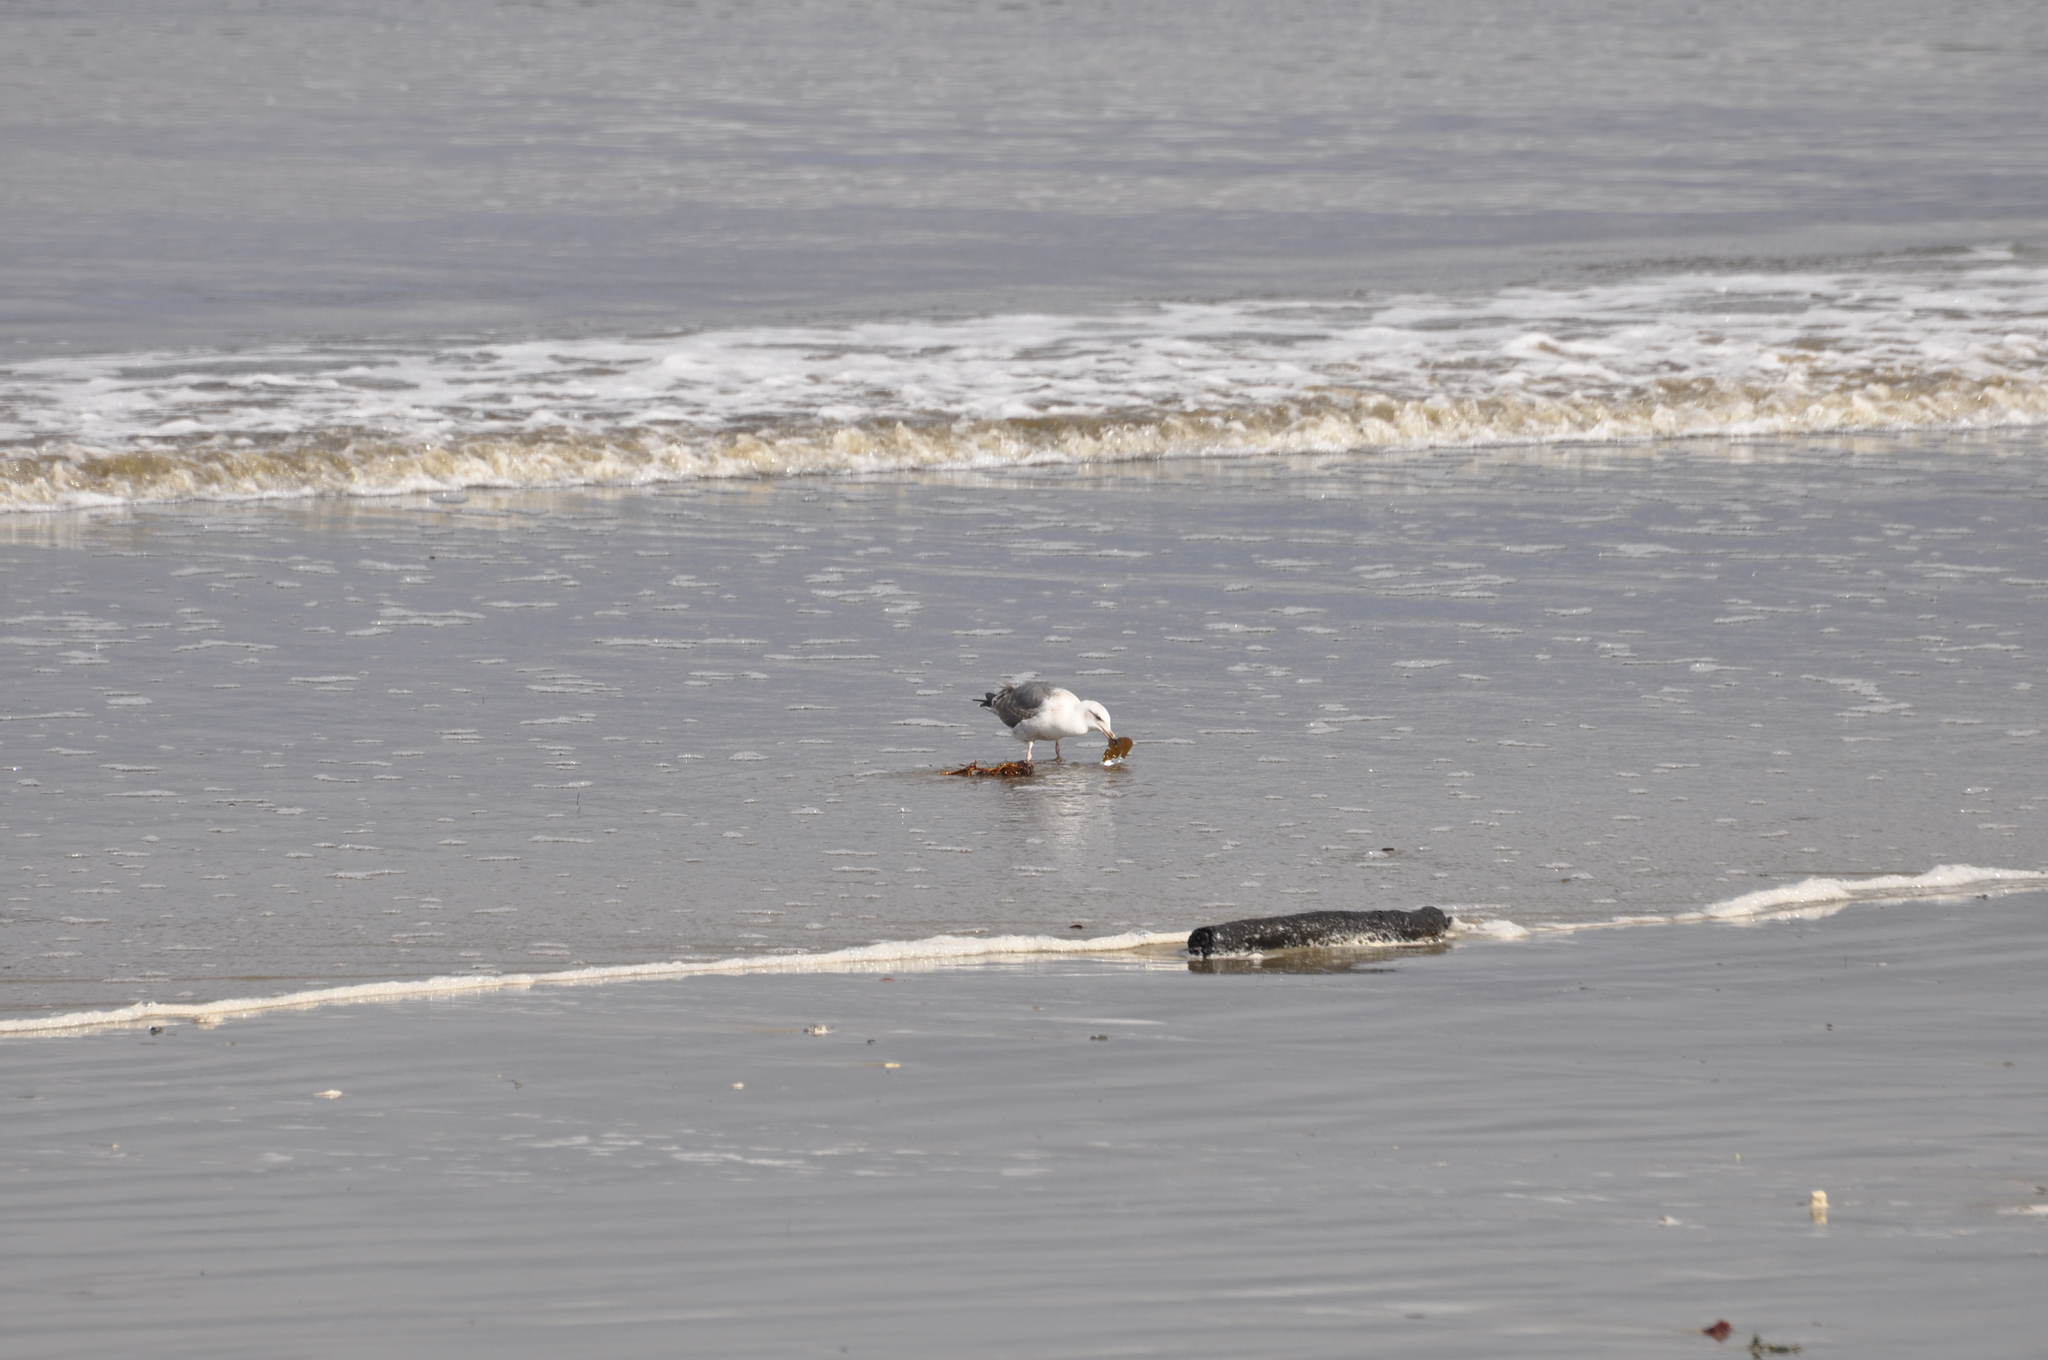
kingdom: Animalia
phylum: Chordata
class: Aves
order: Charadriiformes
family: Laridae
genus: Larus
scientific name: Larus occidentalis
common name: Western gull
